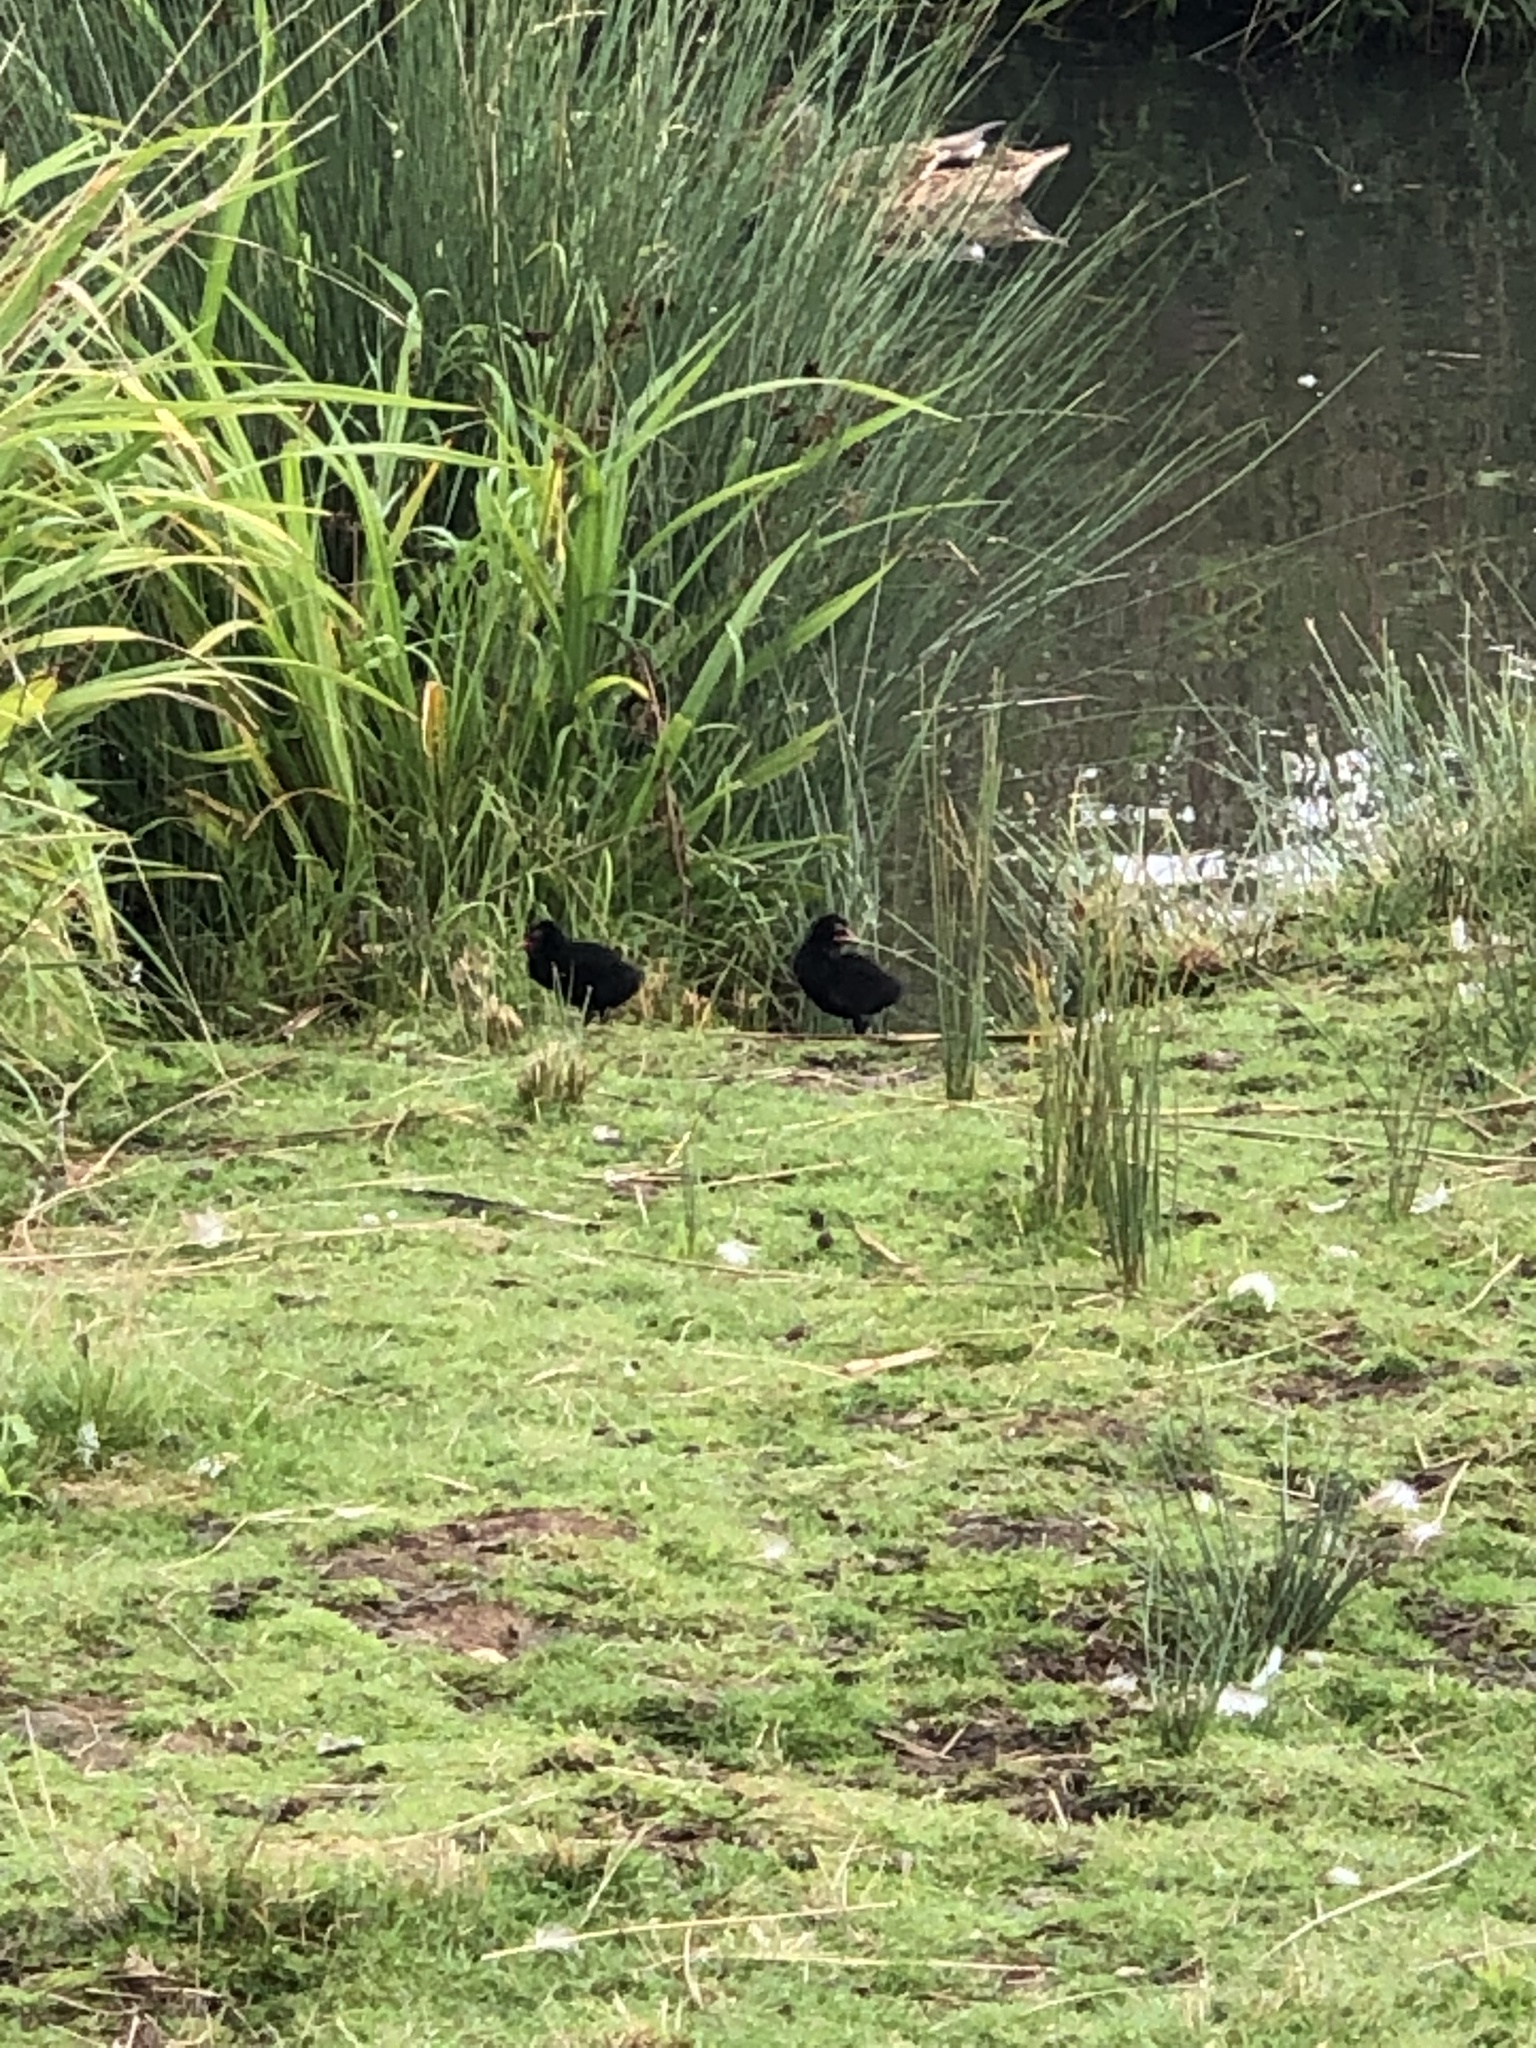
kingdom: Animalia
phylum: Chordata
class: Aves
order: Gruiformes
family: Rallidae
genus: Gallinula
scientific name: Gallinula chloropus
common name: Common moorhen
